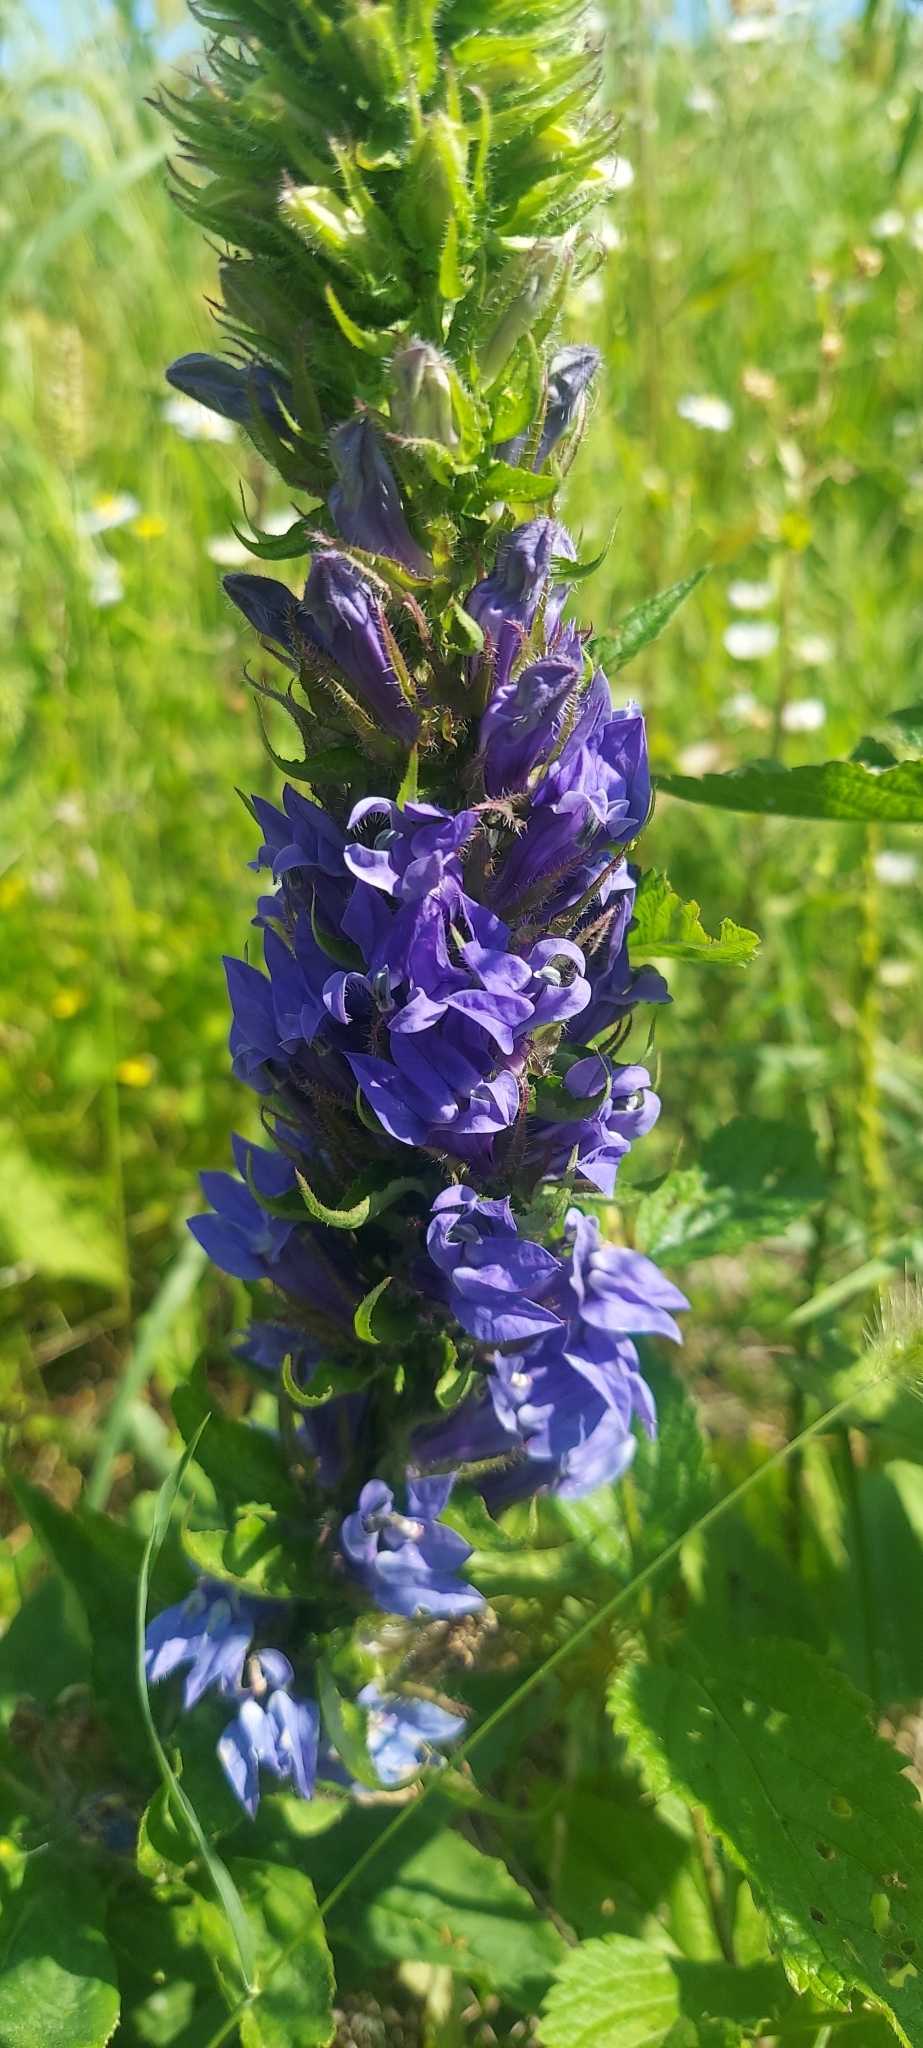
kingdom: Plantae
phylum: Tracheophyta
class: Magnoliopsida
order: Asterales
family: Campanulaceae
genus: Lobelia
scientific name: Lobelia siphilitica
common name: Great lobelia
